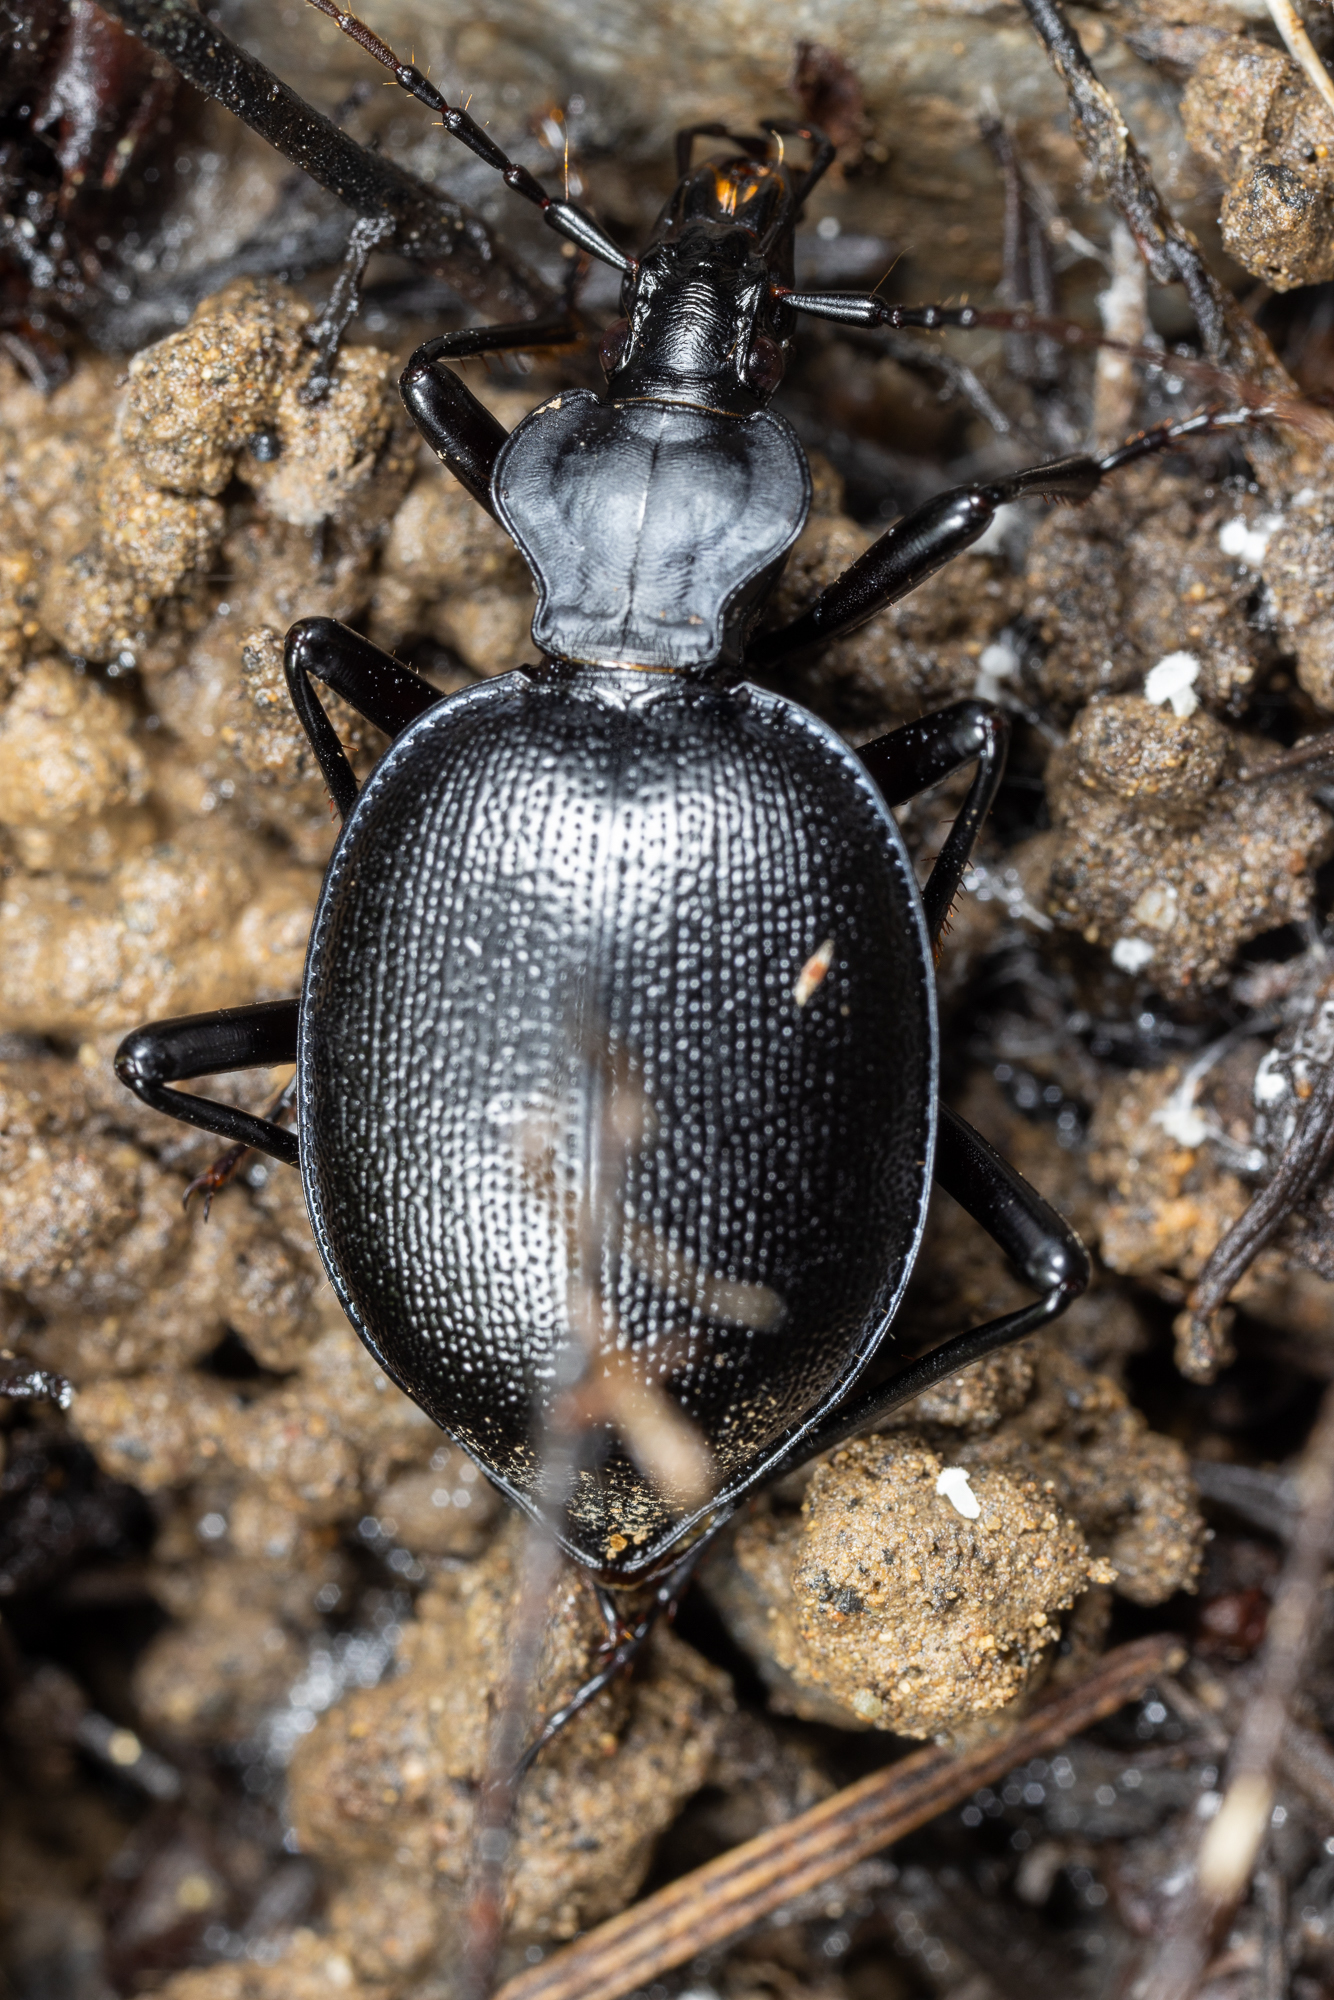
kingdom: Animalia
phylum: Arthropoda
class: Insecta
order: Coleoptera
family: Carabidae
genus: Scaphinotus
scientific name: Scaphinotus ventricosus
